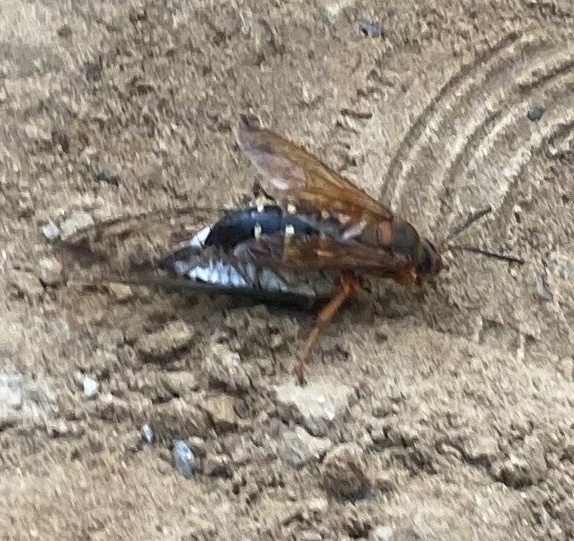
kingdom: Animalia
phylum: Arthropoda
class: Insecta
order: Hymenoptera
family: Crabronidae
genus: Sphecius
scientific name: Sphecius speciosus
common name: Cicada killer
